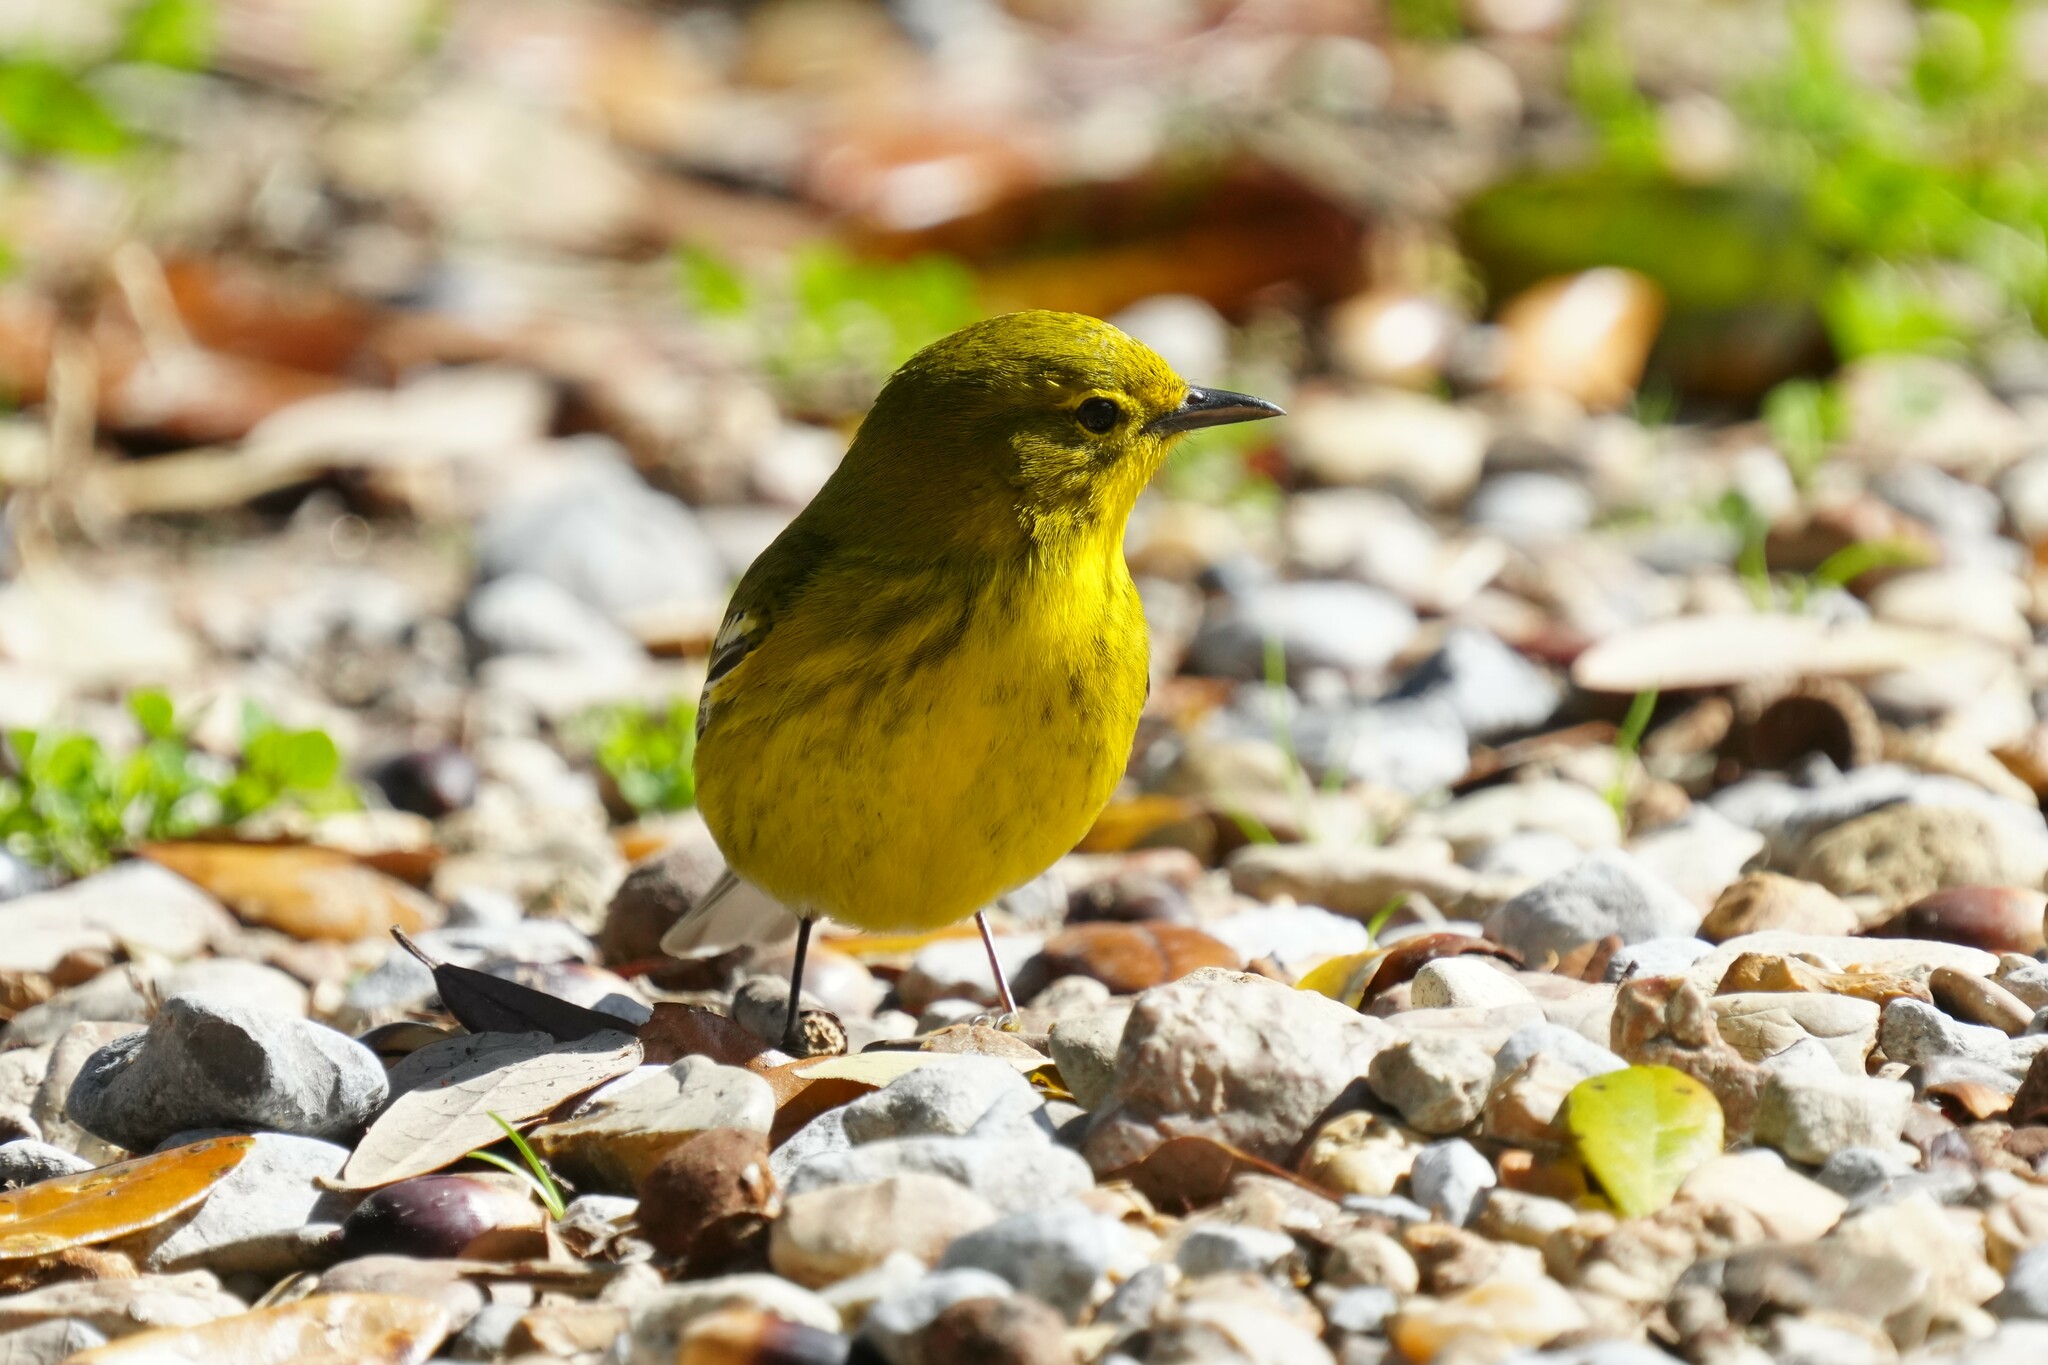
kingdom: Animalia
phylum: Chordata
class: Aves
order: Passeriformes
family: Parulidae
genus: Setophaga
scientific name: Setophaga pinus
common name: Pine warbler
